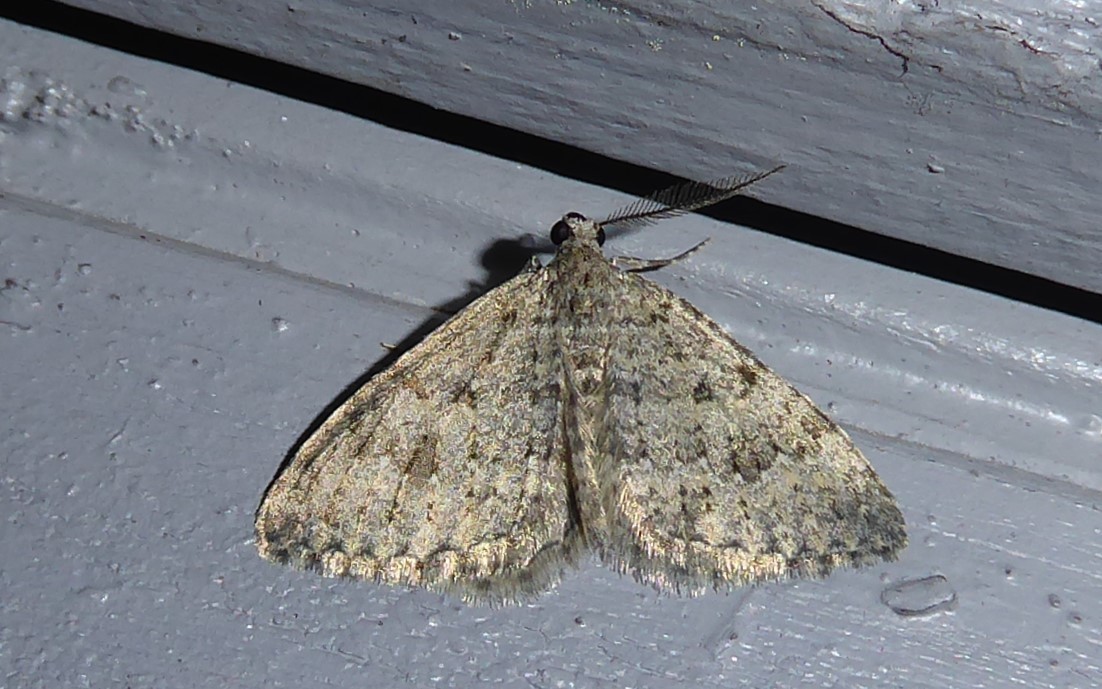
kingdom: Animalia
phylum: Arthropoda
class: Insecta
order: Lepidoptera
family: Geometridae
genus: Helastia
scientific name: Helastia corcularia
